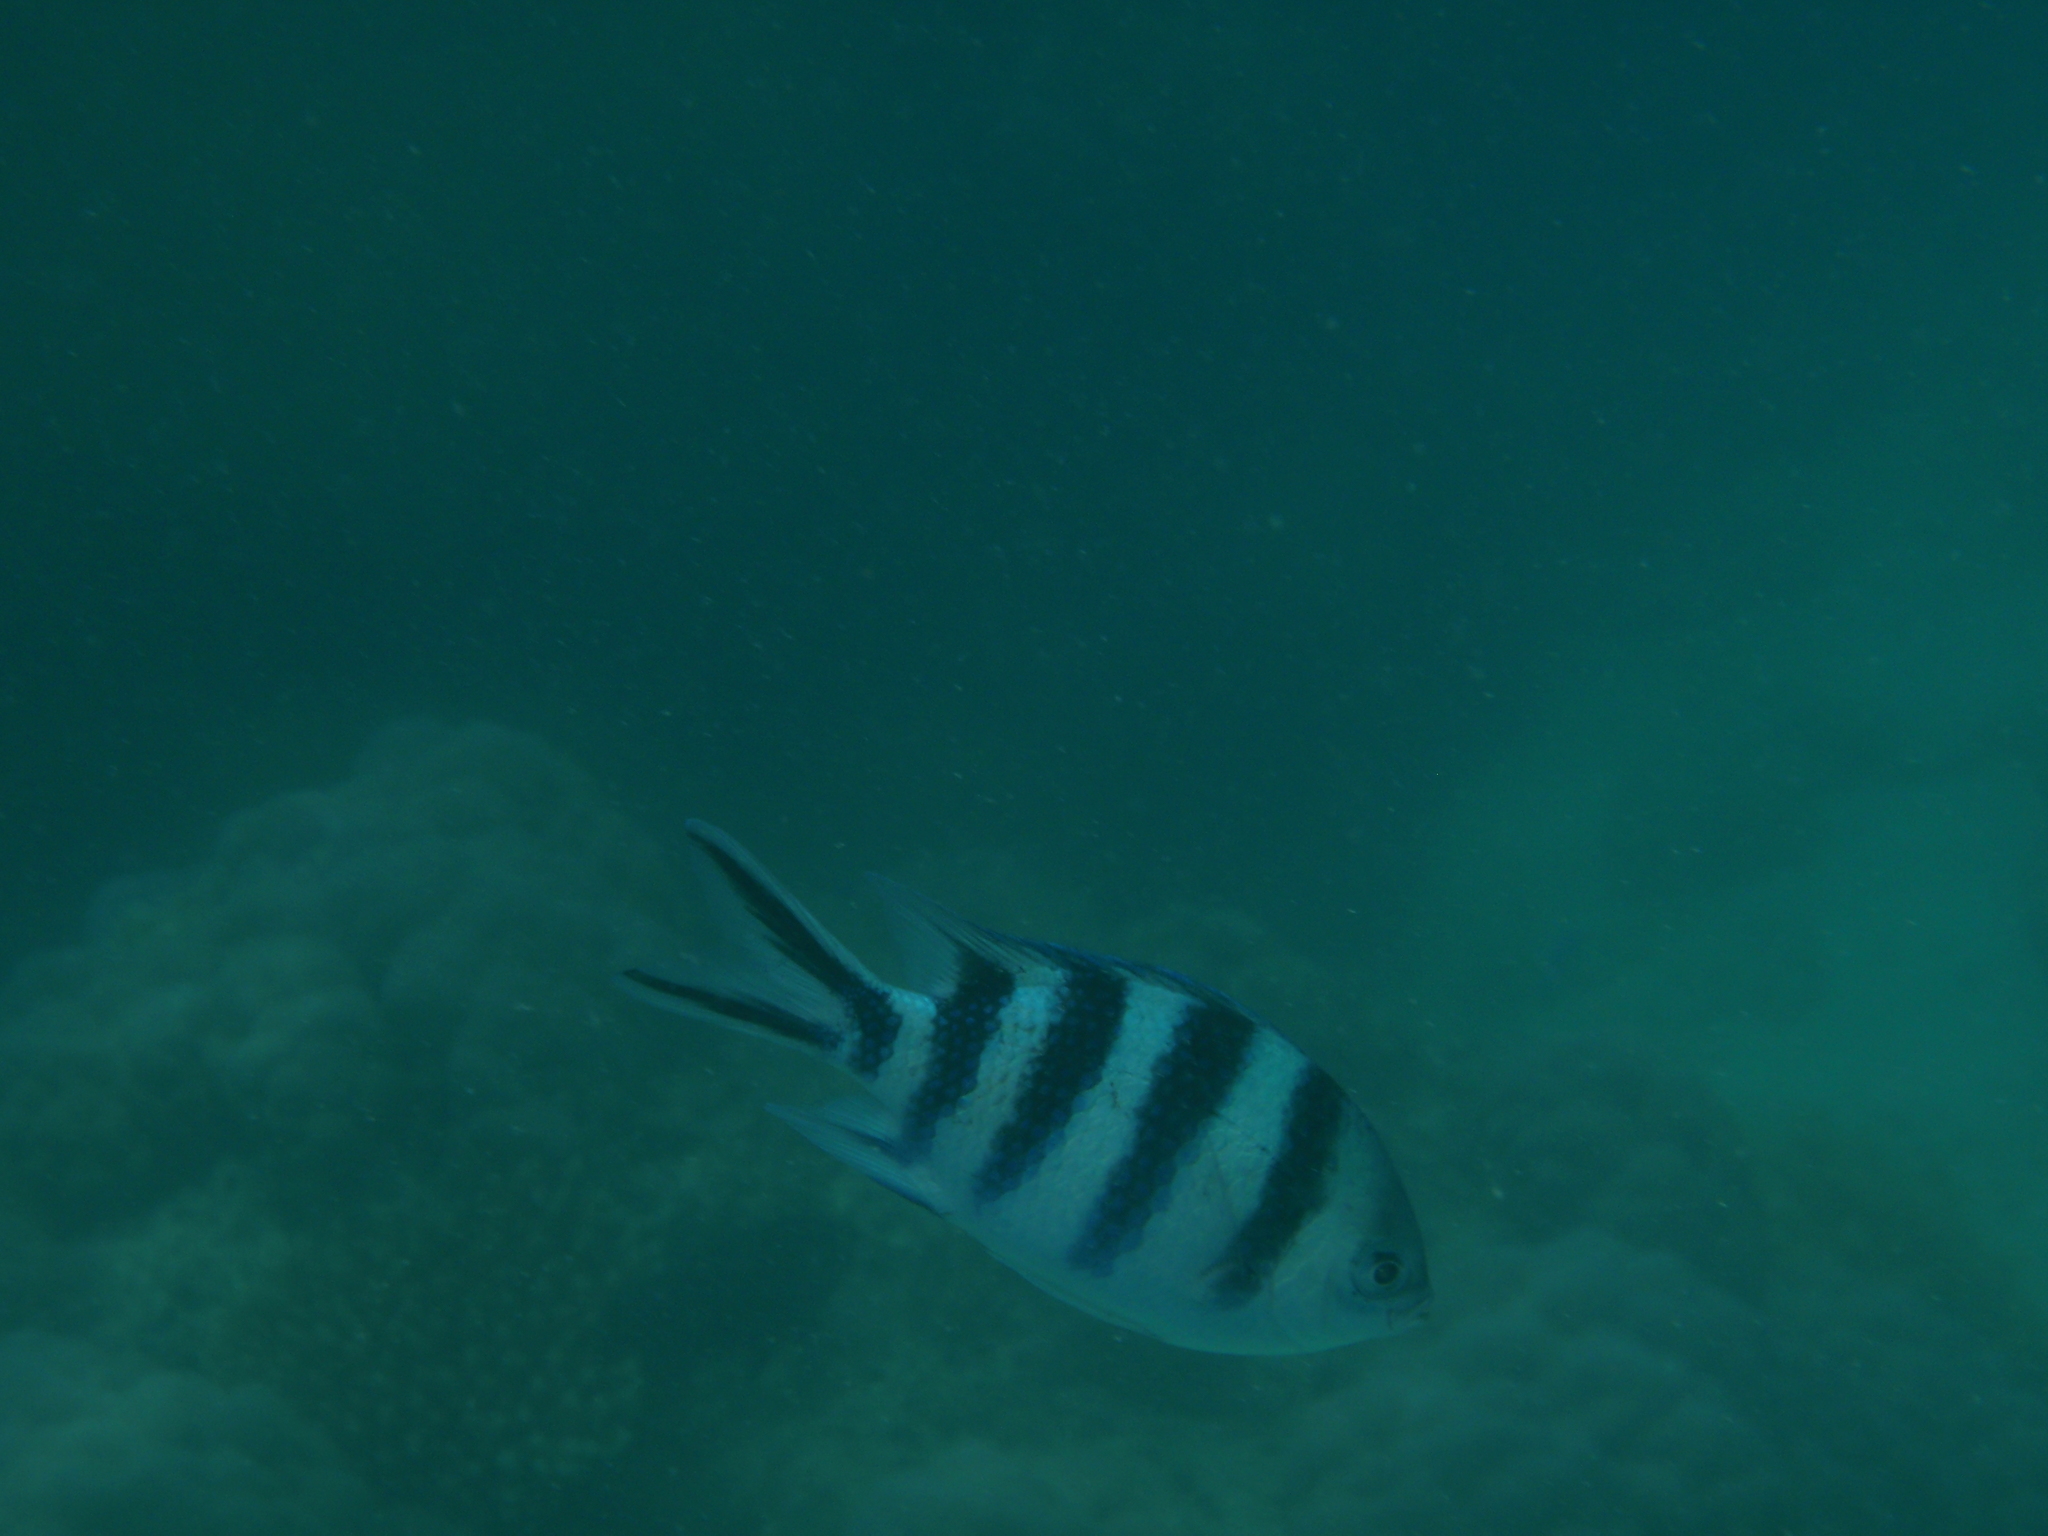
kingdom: Animalia
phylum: Chordata
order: Perciformes
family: Pomacentridae
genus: Abudefduf
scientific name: Abudefduf sexfasciatus
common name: Scissortail sergeant
